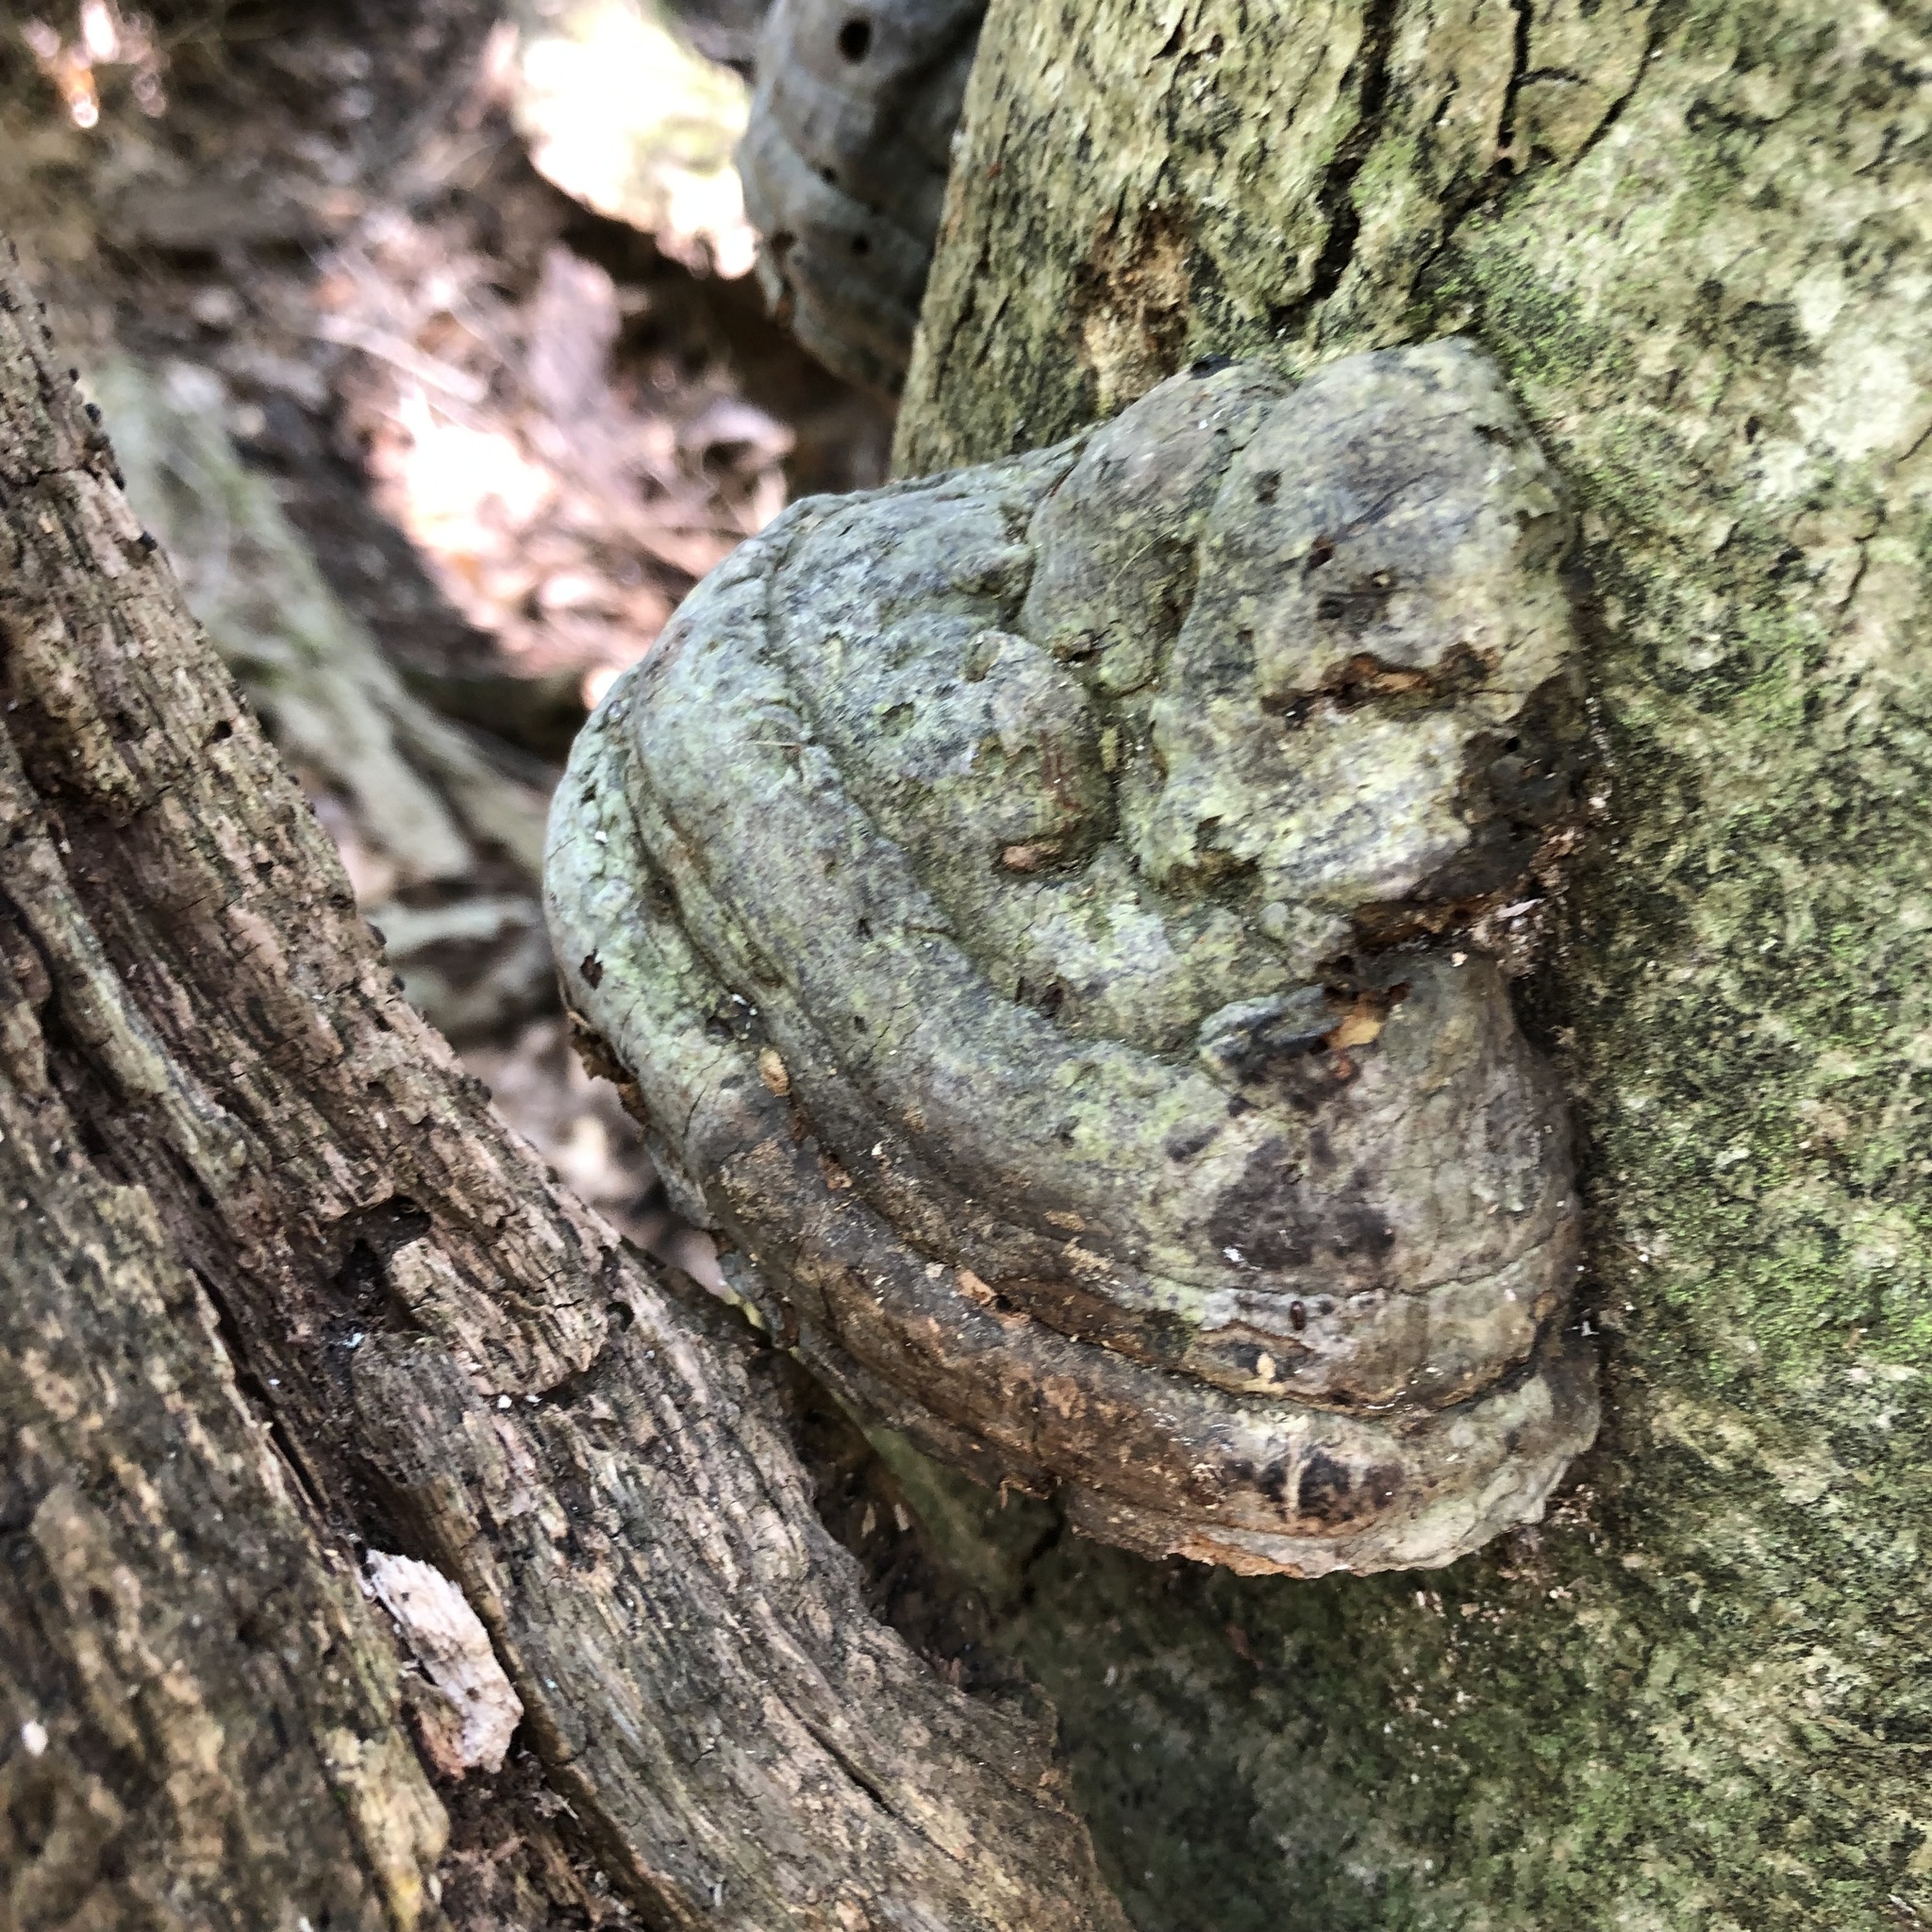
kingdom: Fungi
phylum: Basidiomycota
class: Agaricomycetes
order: Polyporales
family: Polyporaceae
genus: Fomes
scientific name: Fomes fomentarius
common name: Hoof fungus
